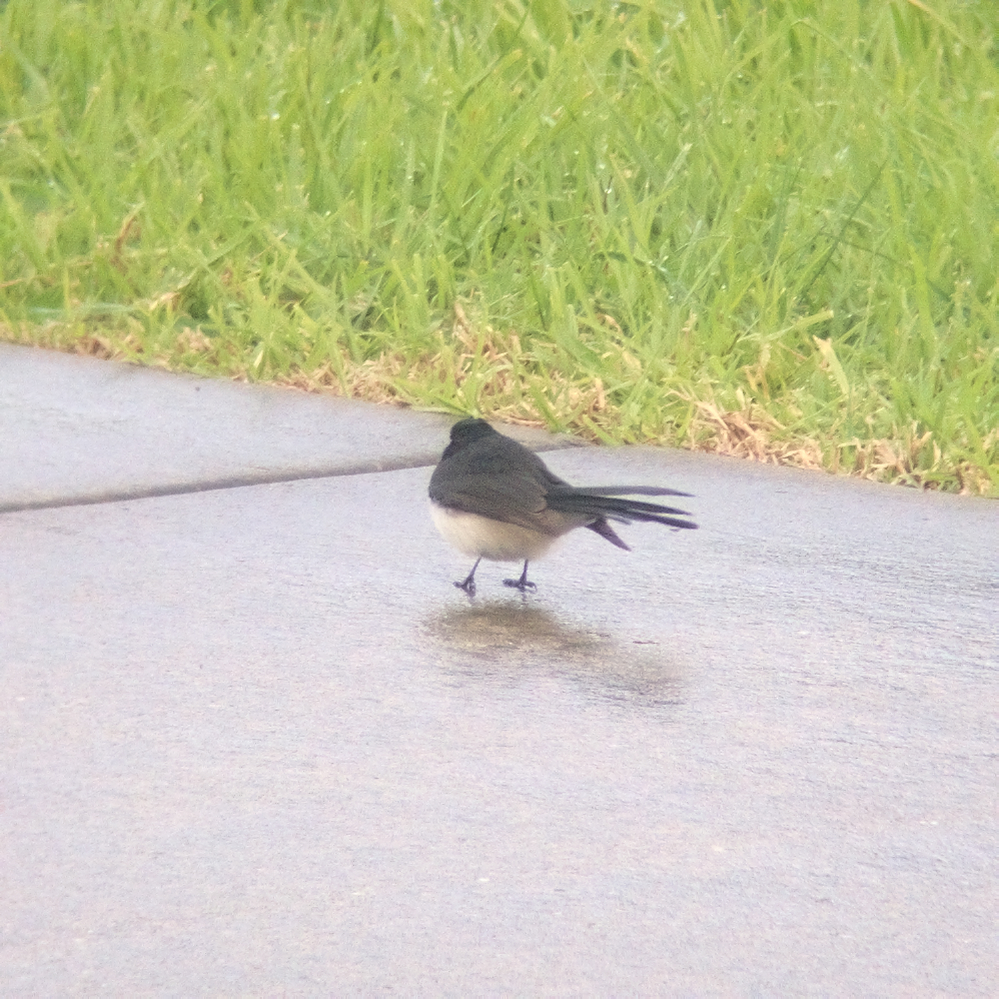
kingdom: Animalia
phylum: Chordata
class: Aves
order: Passeriformes
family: Rhipiduridae
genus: Rhipidura
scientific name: Rhipidura leucophrys
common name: Willie wagtail
